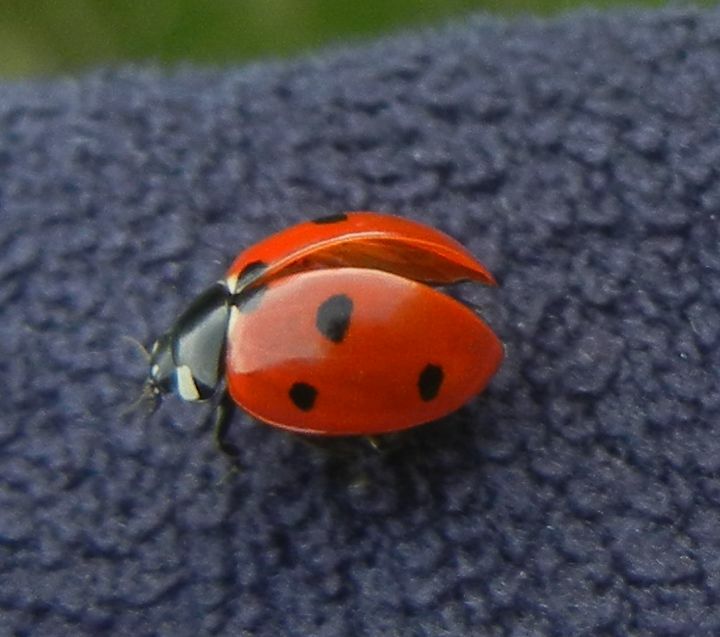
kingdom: Animalia
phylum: Arthropoda
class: Insecta
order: Coleoptera
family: Coccinellidae
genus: Coccinella
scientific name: Coccinella septempunctata
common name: Sevenspotted lady beetle
